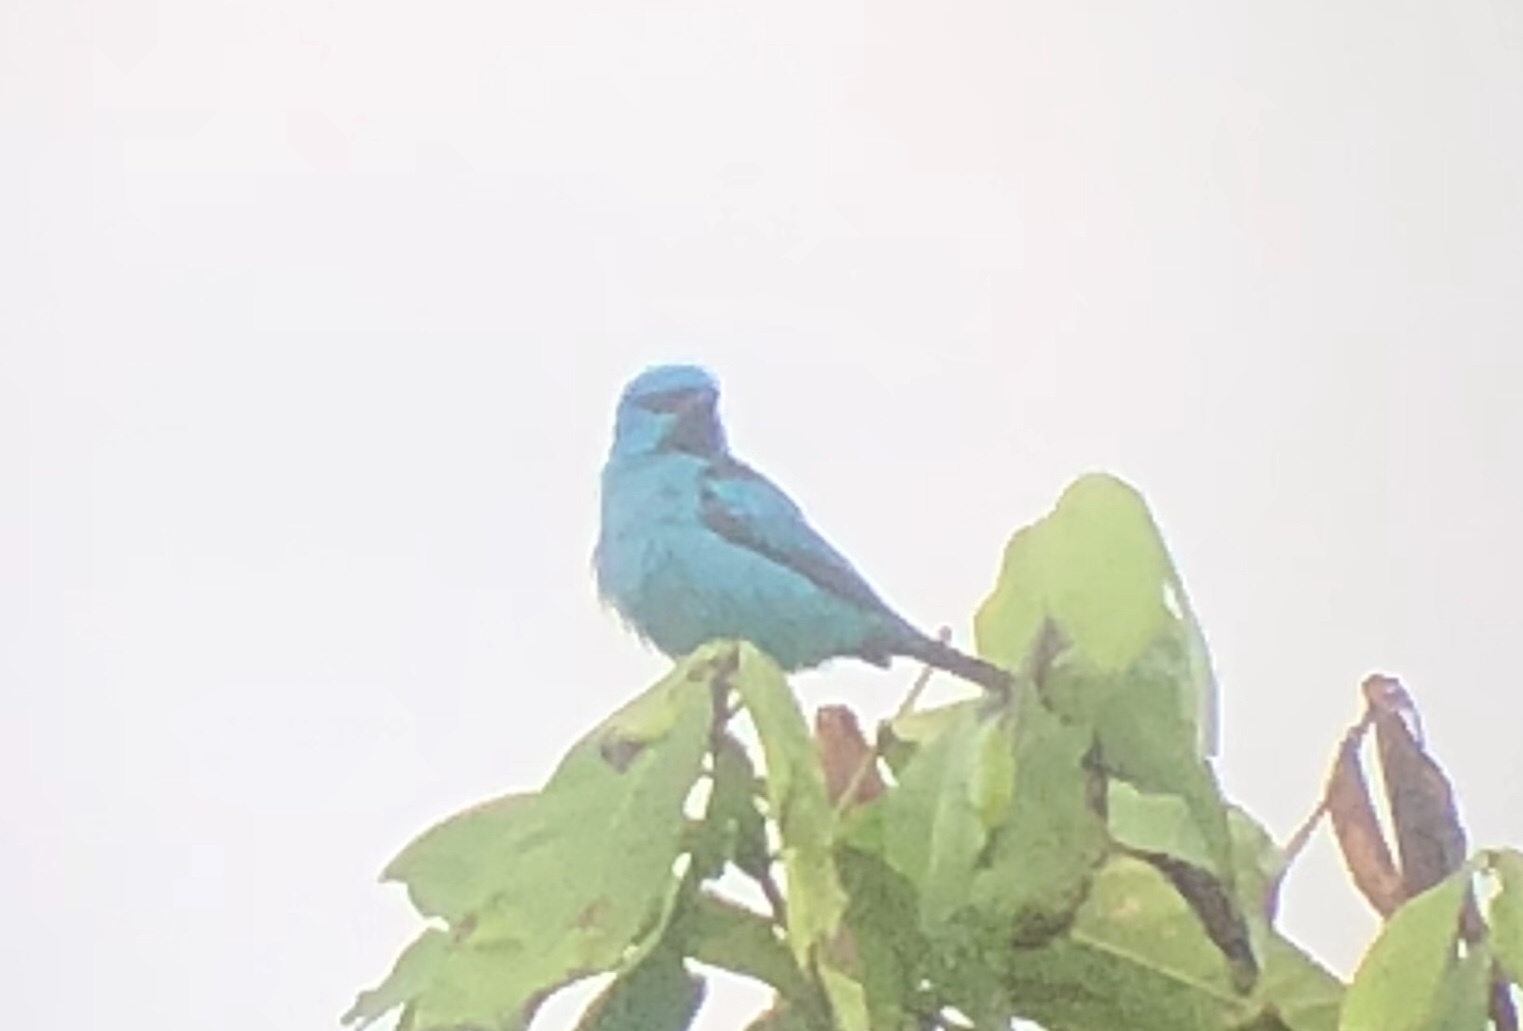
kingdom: Animalia
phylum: Chordata
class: Aves
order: Passeriformes
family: Thraupidae
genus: Dacnis
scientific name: Dacnis cayana
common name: Blue dacnis
